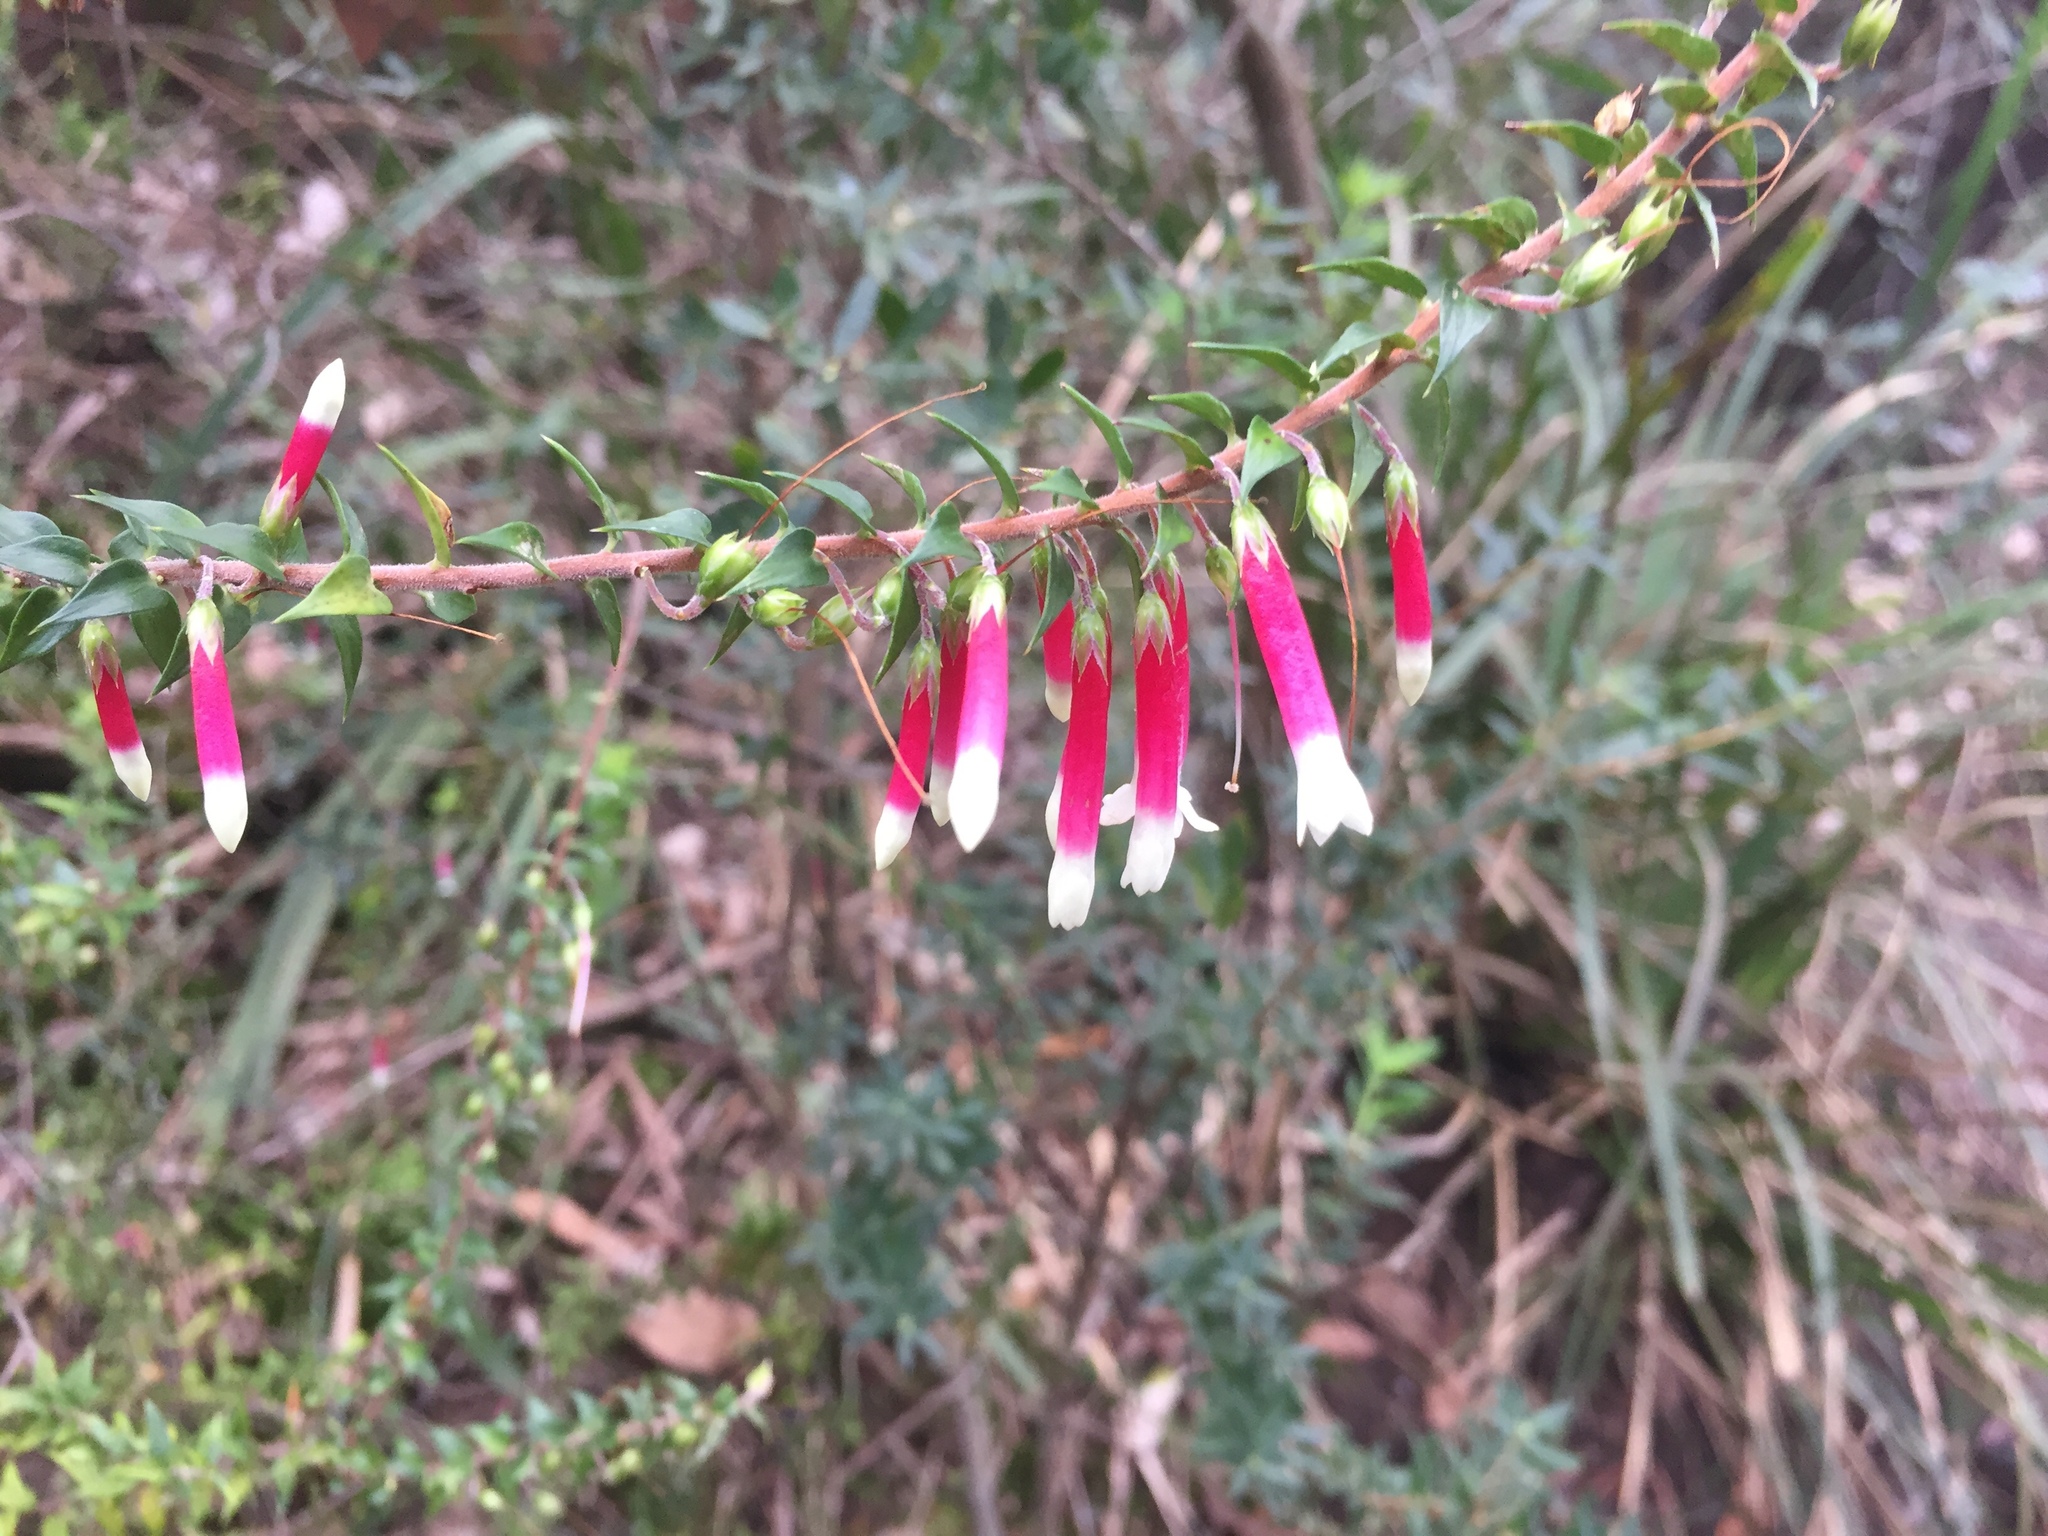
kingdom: Plantae
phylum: Tracheophyta
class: Magnoliopsida
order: Ericales
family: Ericaceae
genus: Epacris
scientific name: Epacris longiflora
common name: Fuchsia-heath
